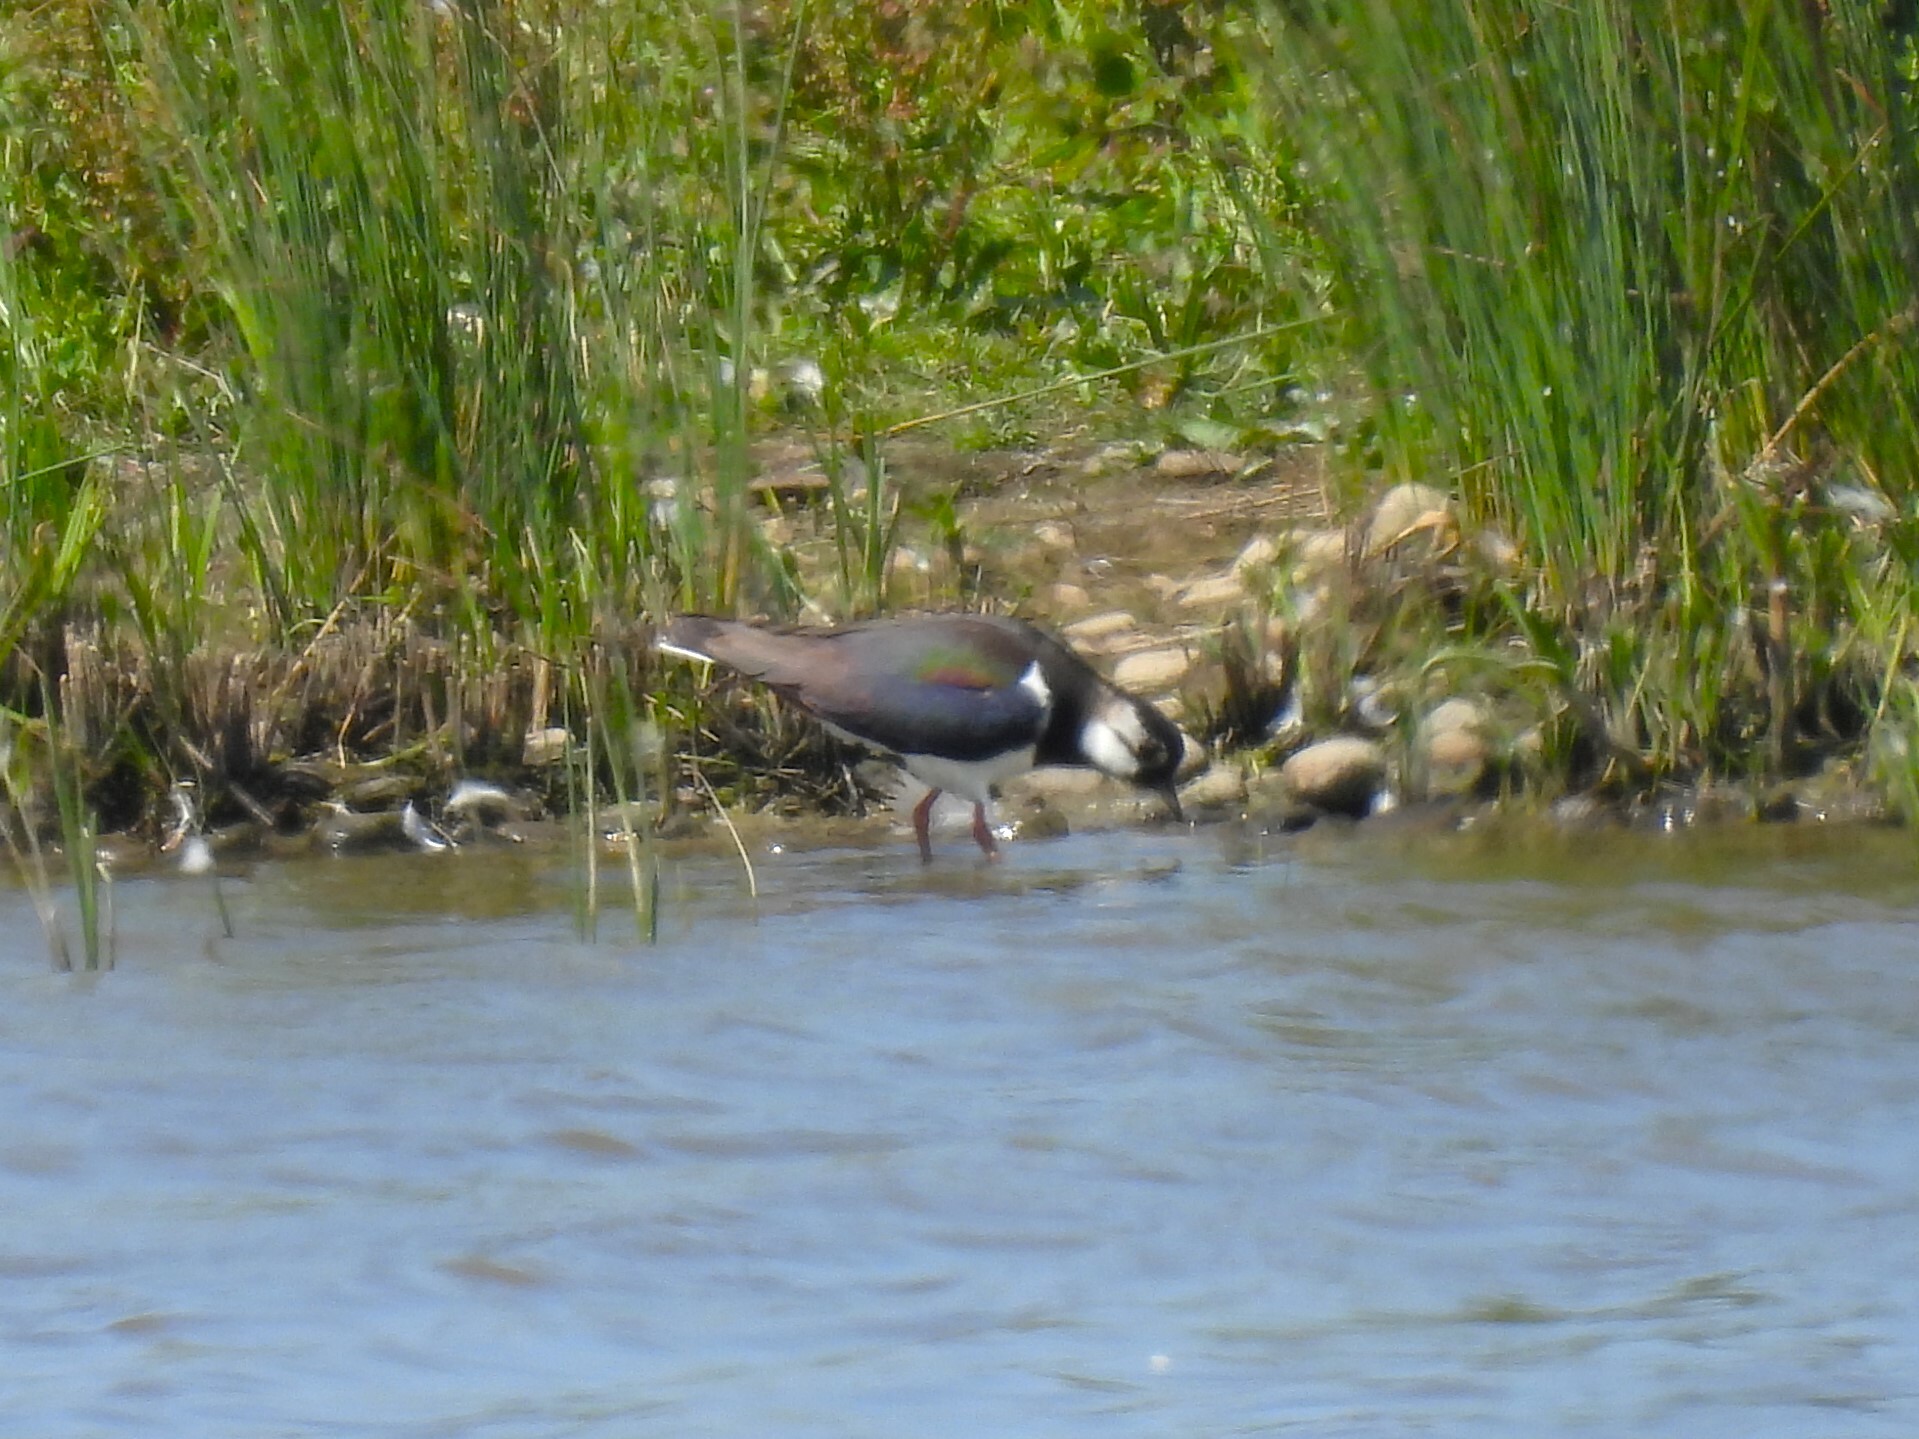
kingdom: Animalia
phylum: Chordata
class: Aves
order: Charadriiformes
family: Charadriidae
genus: Vanellus
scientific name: Vanellus vanellus
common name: Northern lapwing
